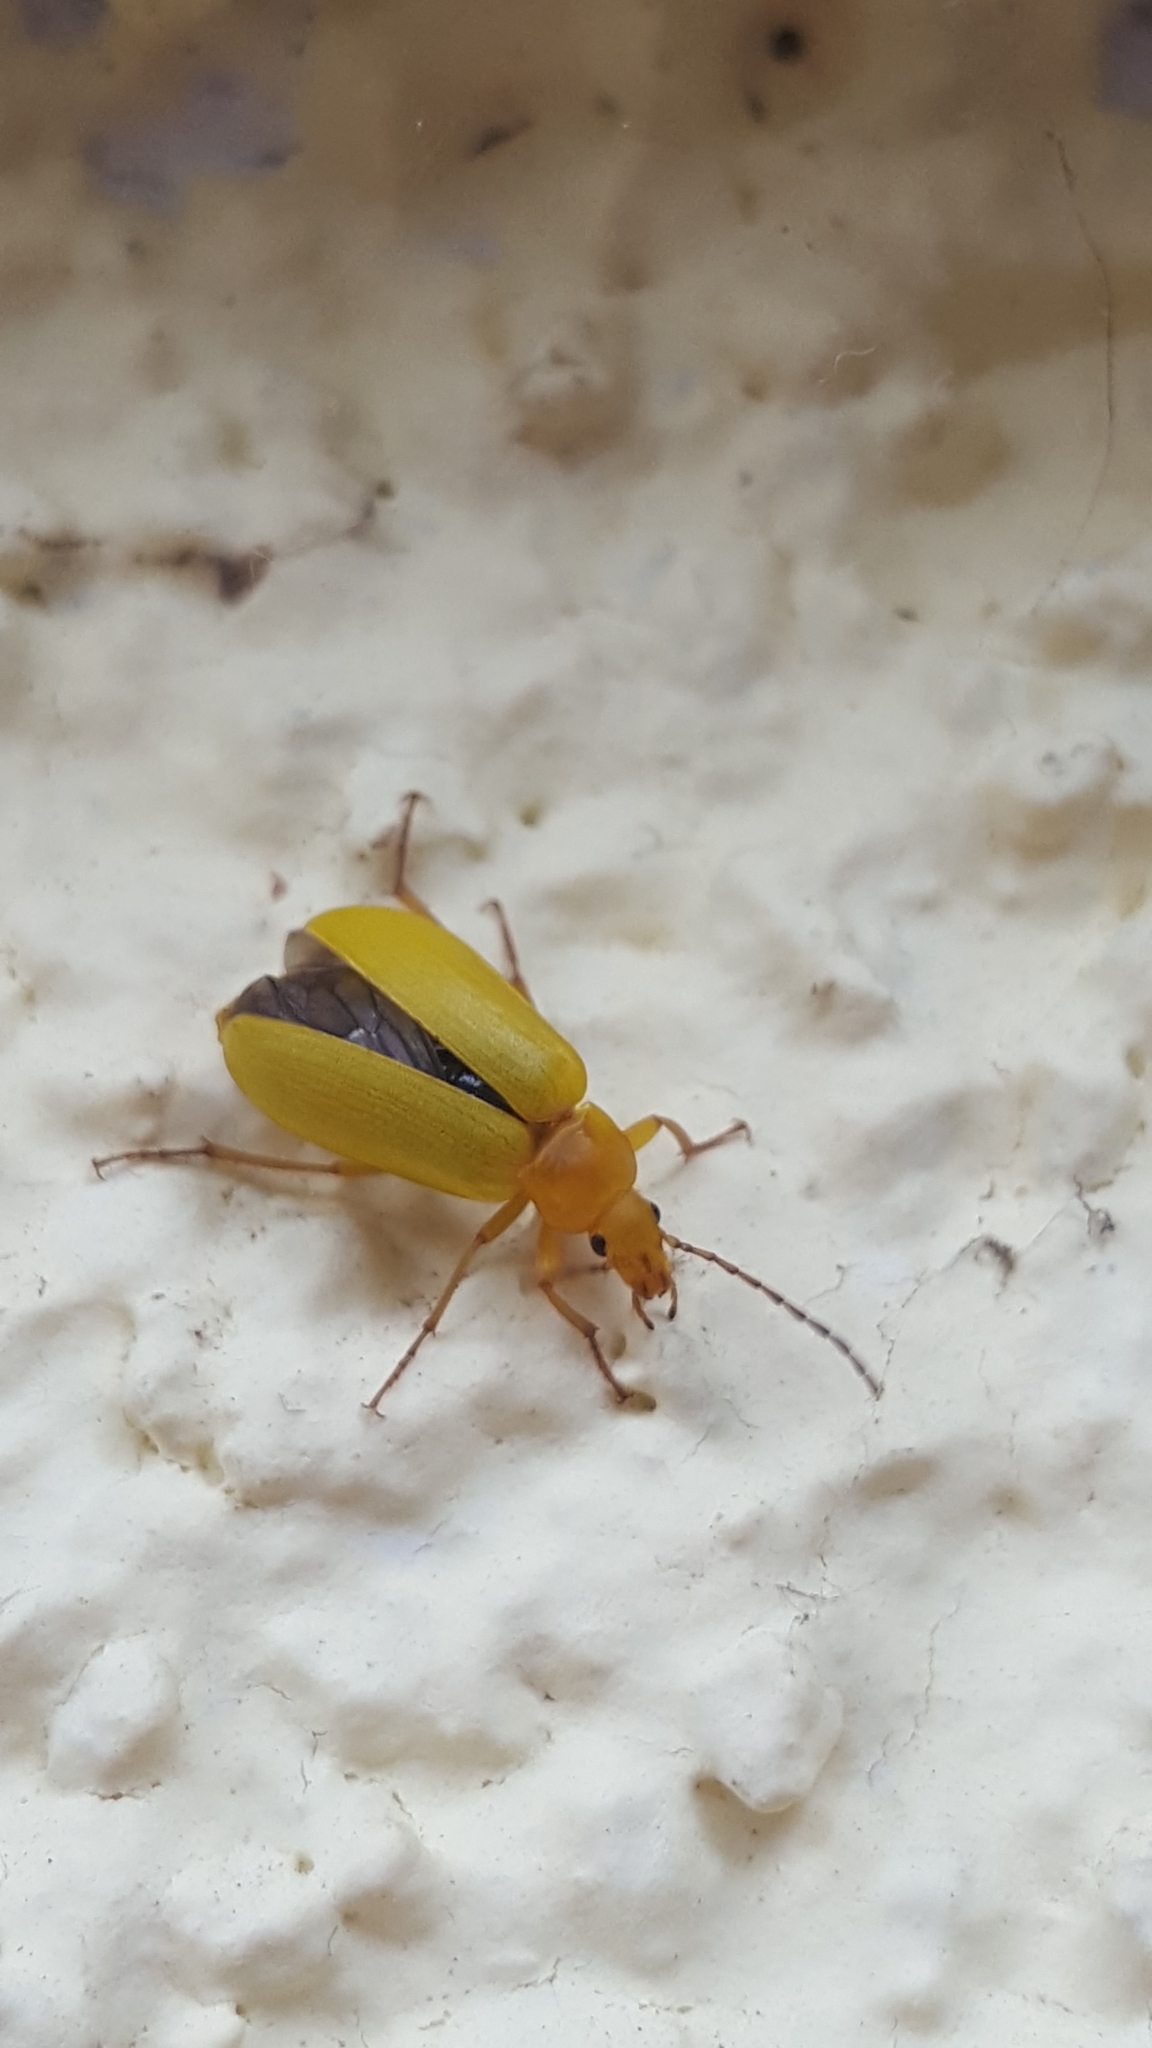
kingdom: Animalia
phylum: Arthropoda
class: Insecta
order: Coleoptera
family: Tenebrionidae
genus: Cteniopus
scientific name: Cteniopus sulphureus
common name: Sulphur beetle
